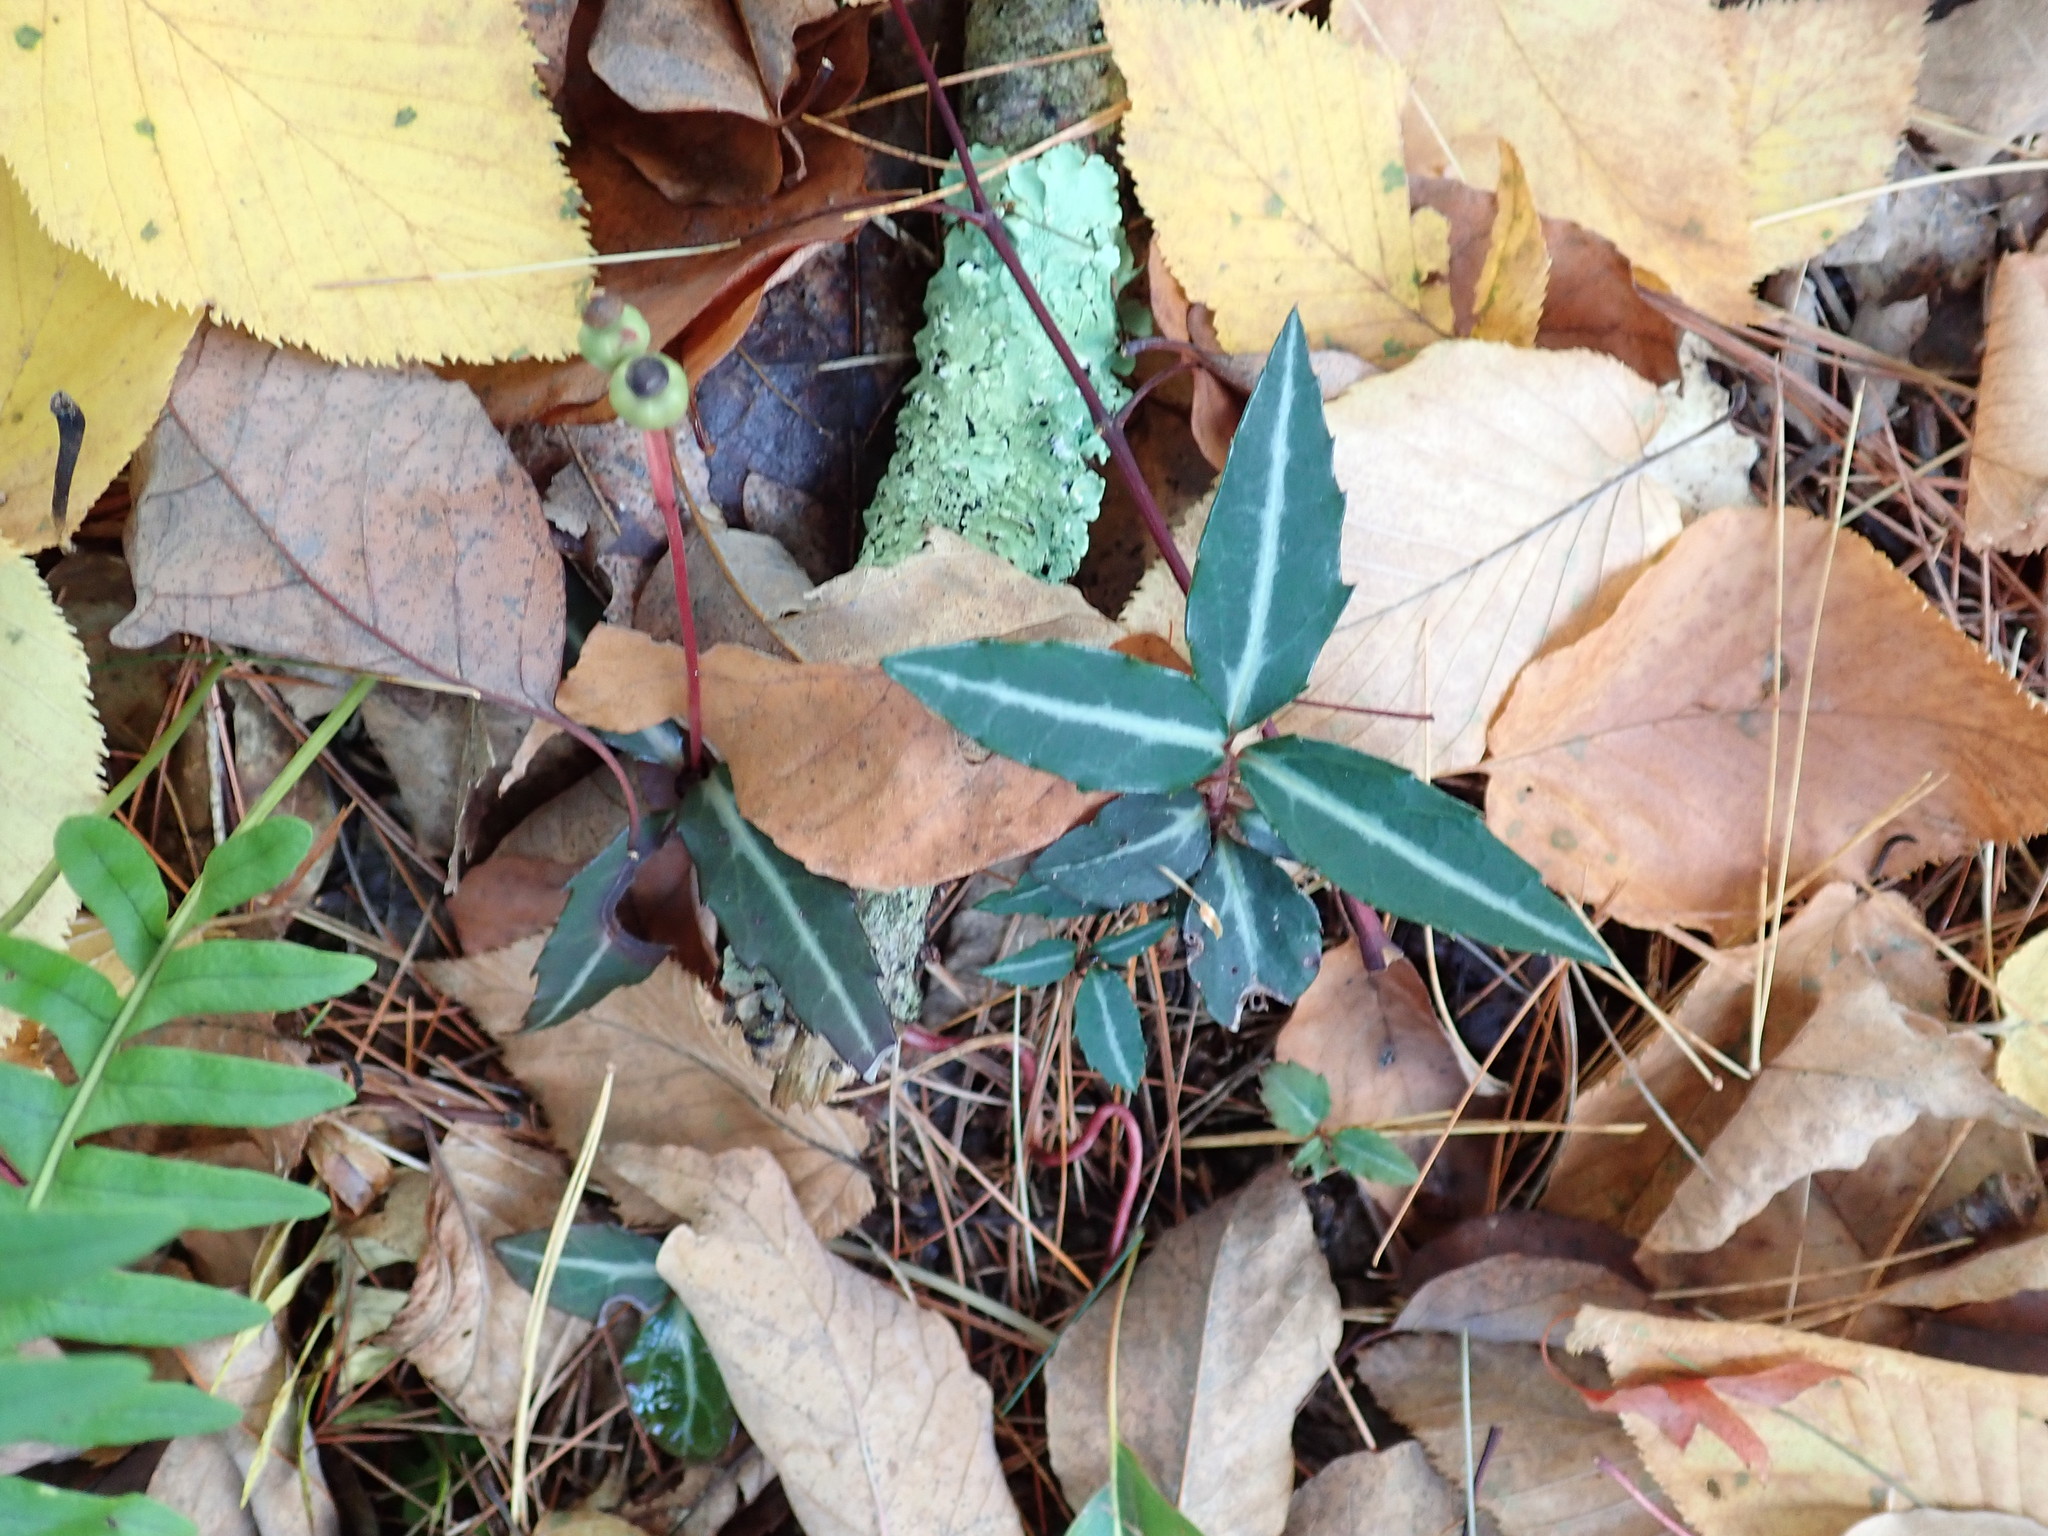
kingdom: Plantae
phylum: Tracheophyta
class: Magnoliopsida
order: Ericales
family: Ericaceae
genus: Chimaphila
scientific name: Chimaphila maculata
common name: Spotted pipsissewa
